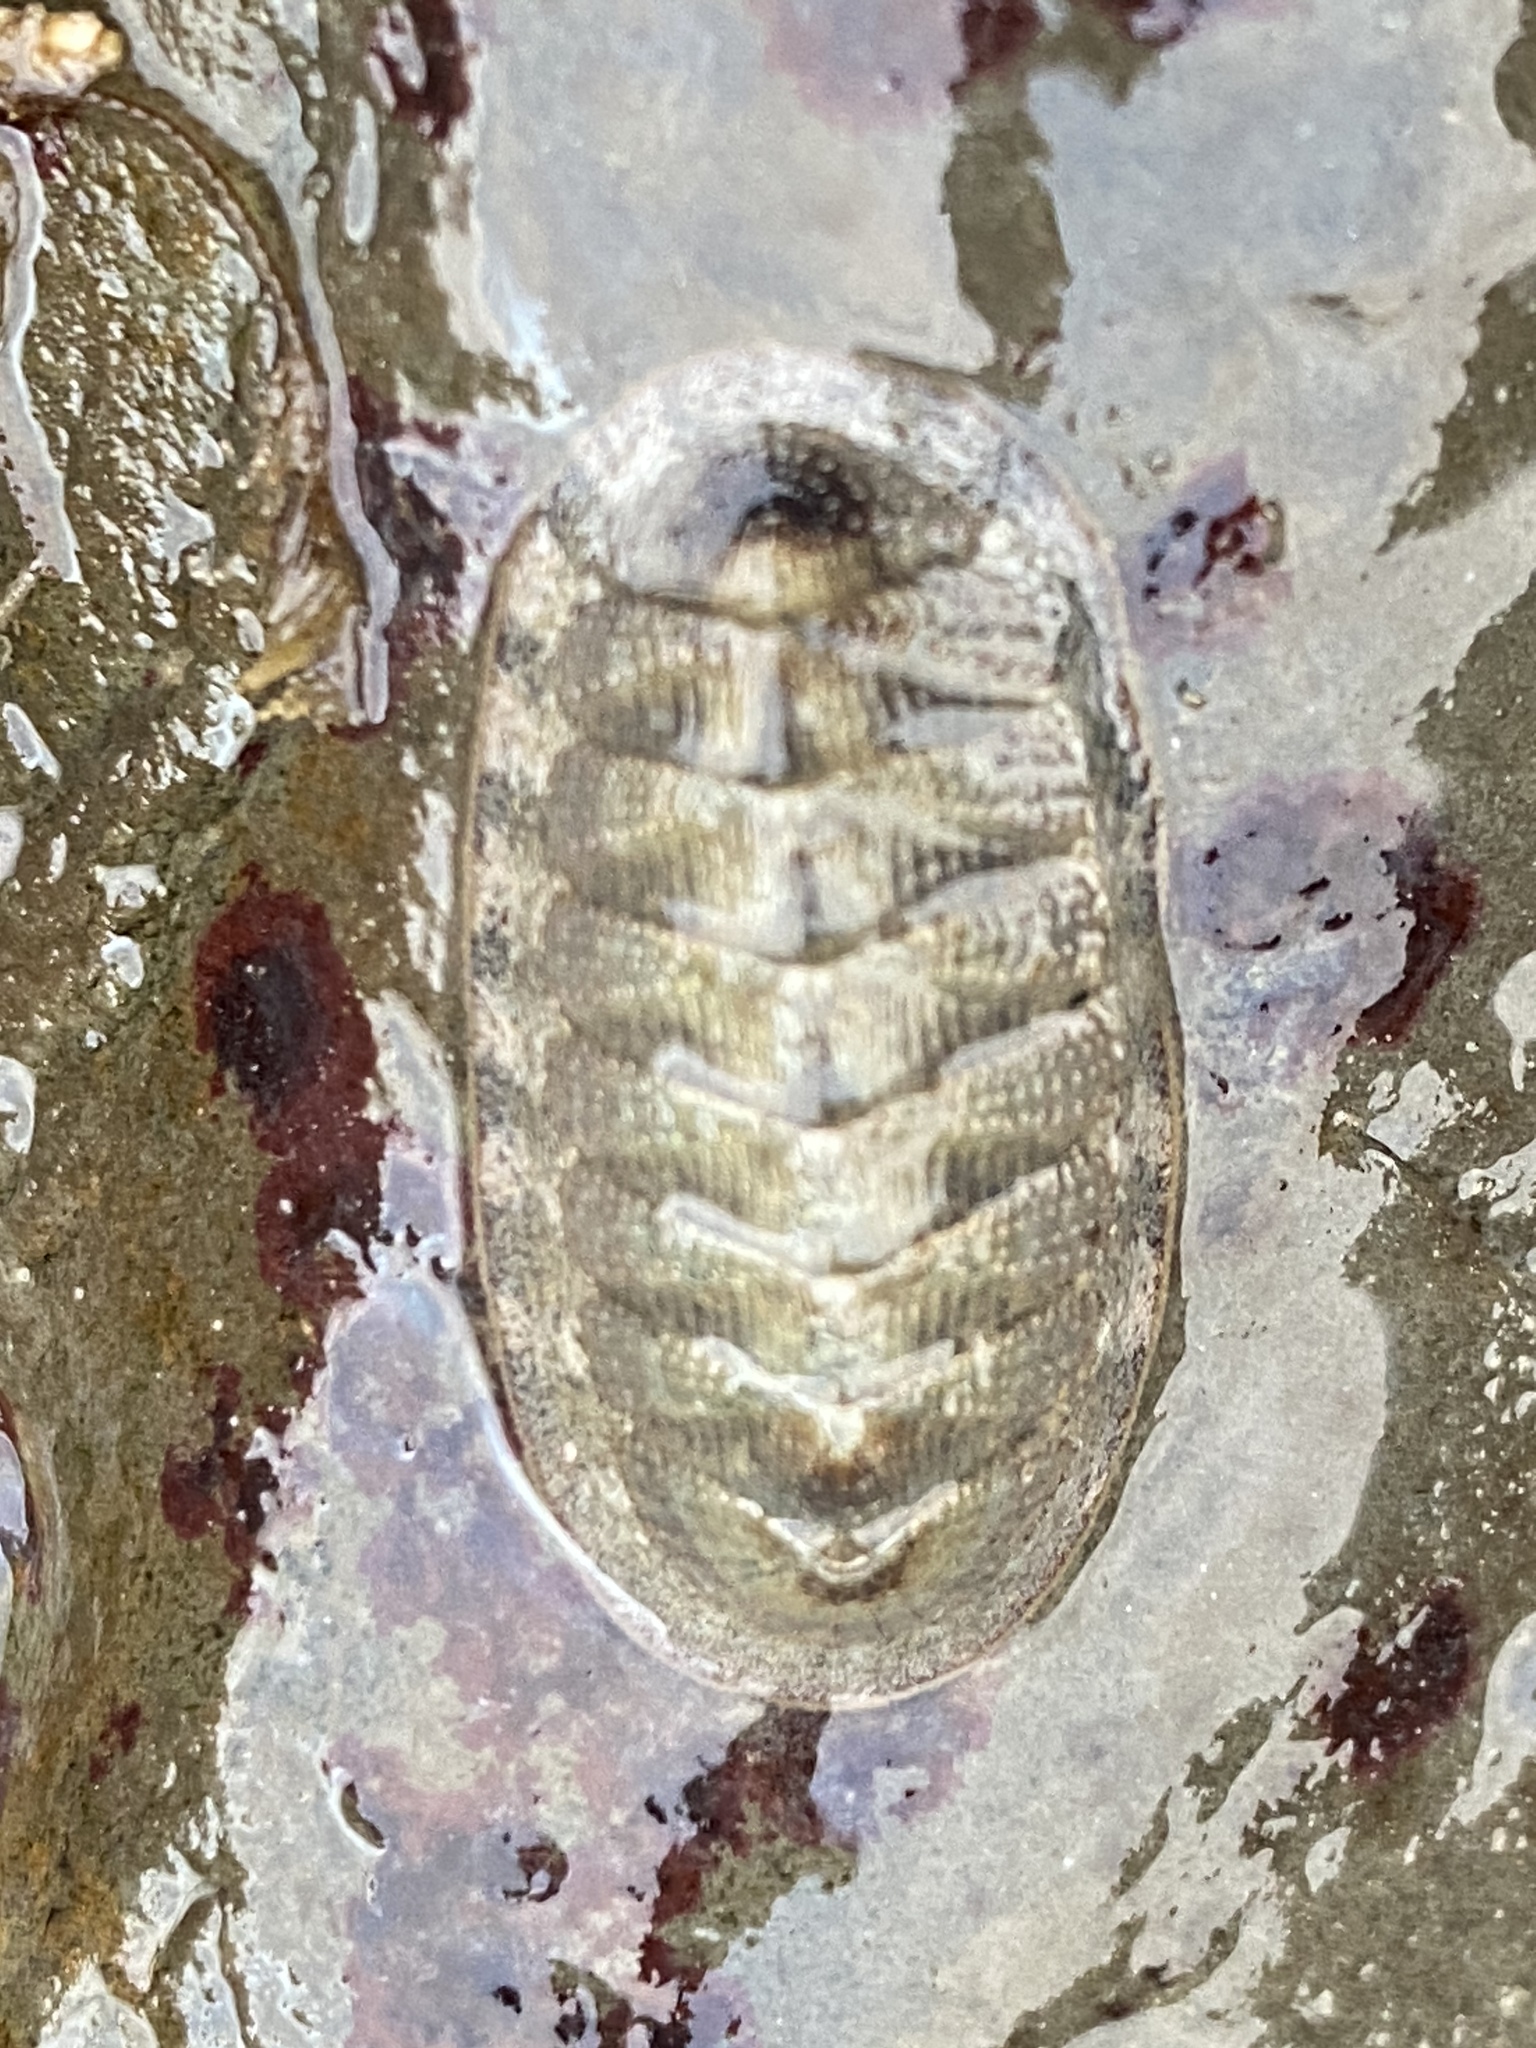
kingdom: Animalia
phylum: Mollusca
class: Polyplacophora
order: Chitonida
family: Ischnochitonidae
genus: Lepidozona
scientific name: Lepidozona cooperi
